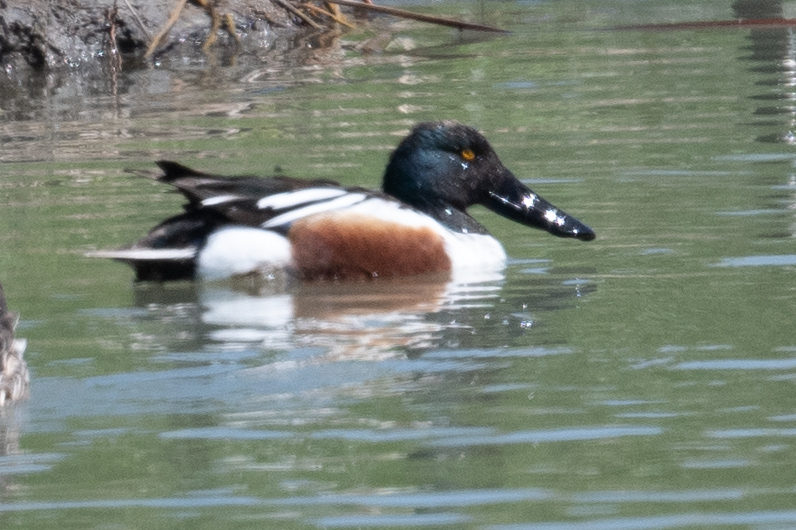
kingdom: Animalia
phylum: Chordata
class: Aves
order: Anseriformes
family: Anatidae
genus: Spatula
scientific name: Spatula clypeata
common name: Northern shoveler
